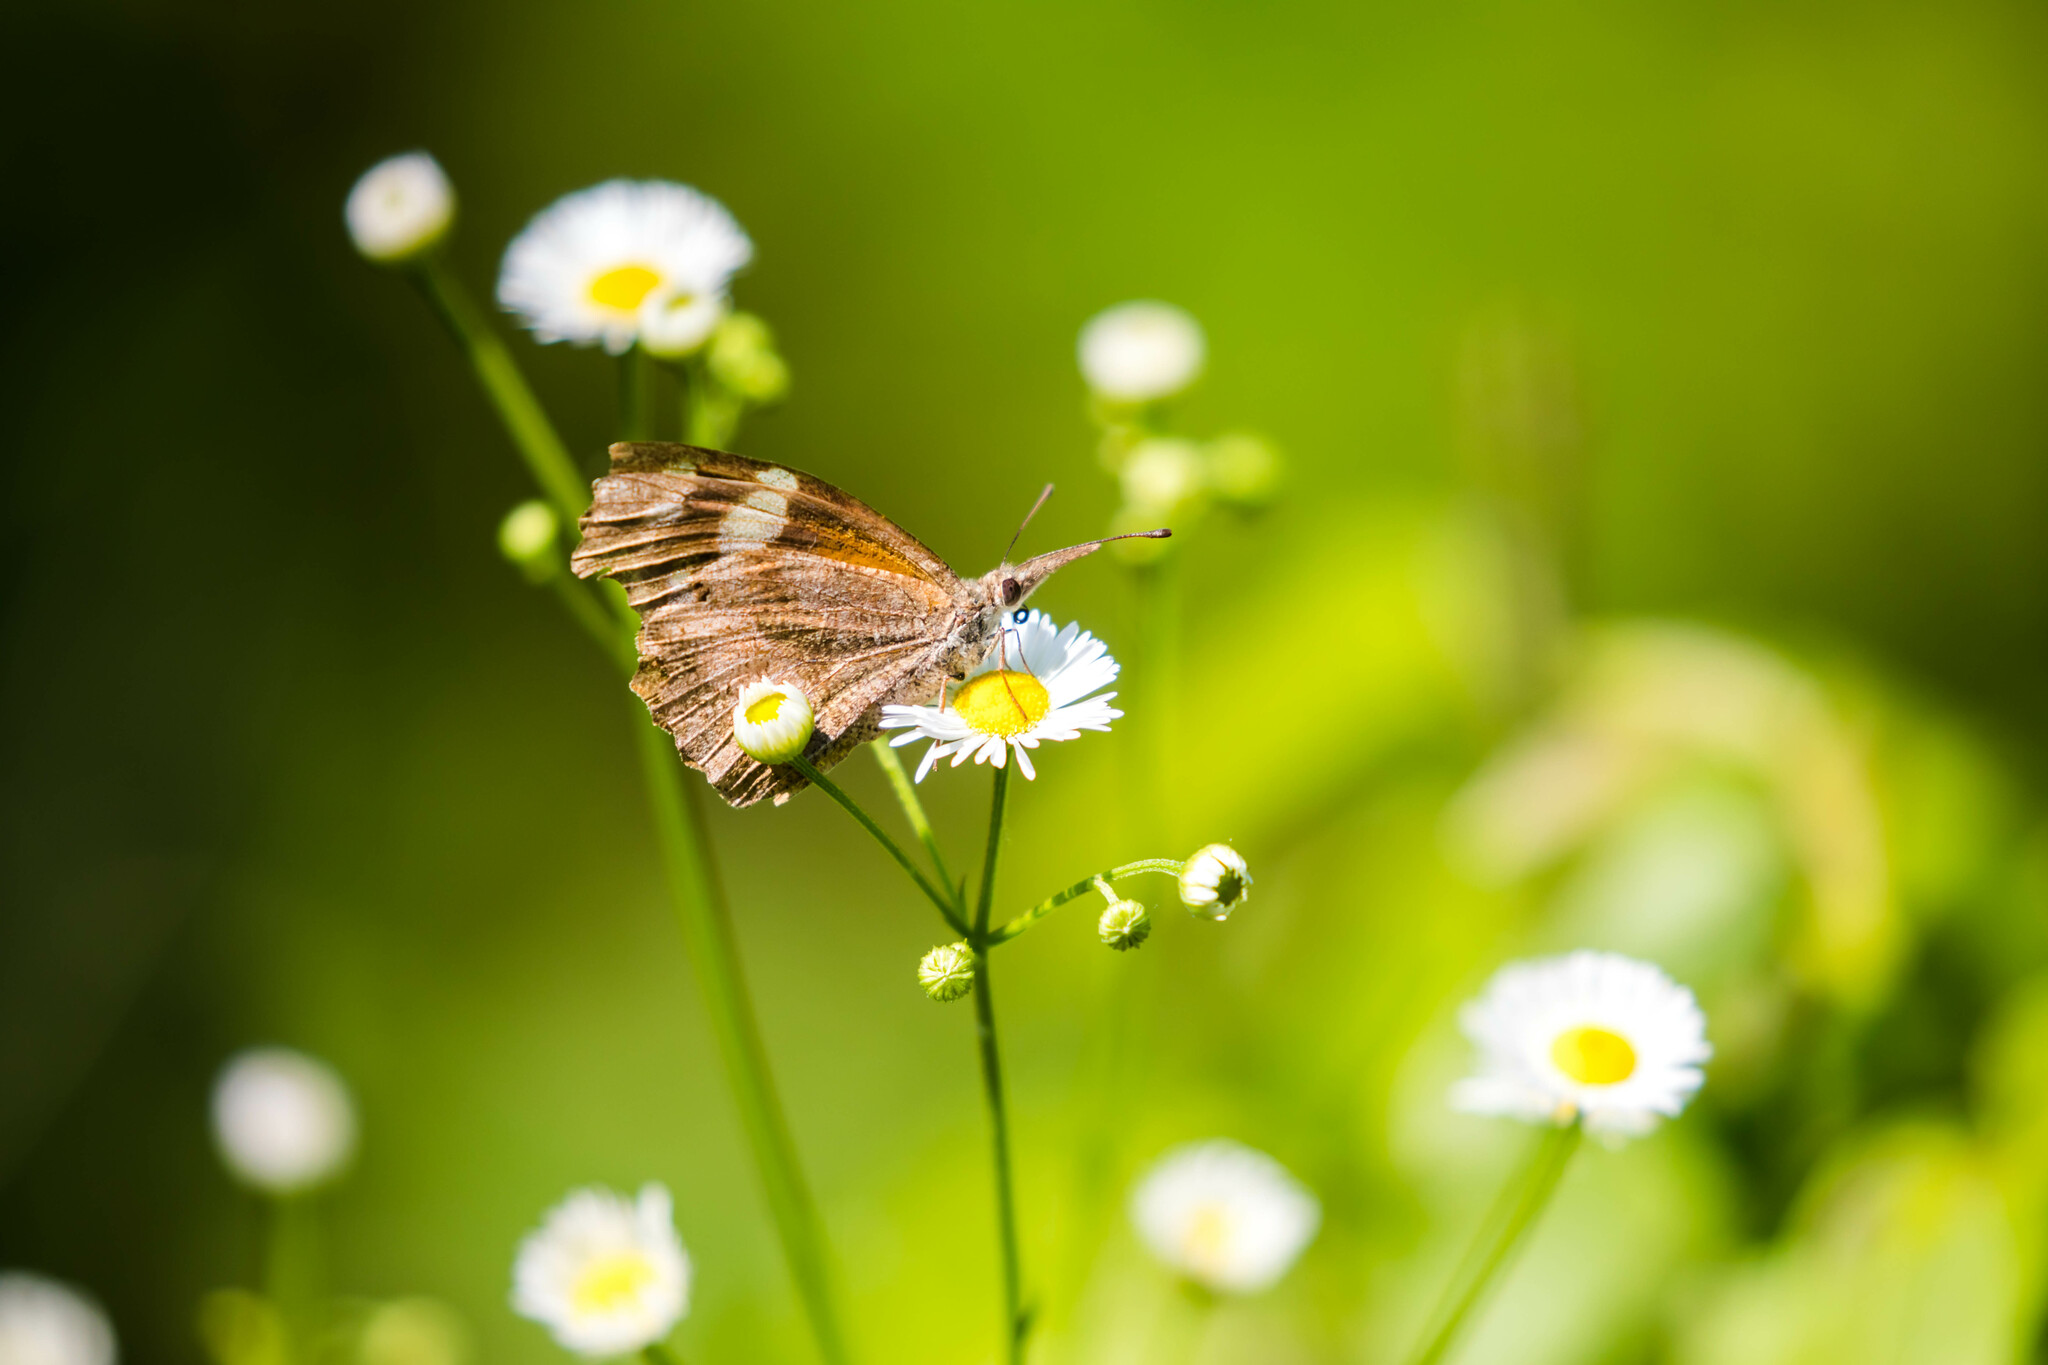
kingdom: Animalia
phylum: Arthropoda
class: Insecta
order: Lepidoptera
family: Nymphalidae
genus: Libytheana
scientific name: Libytheana carinenta
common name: American snout
